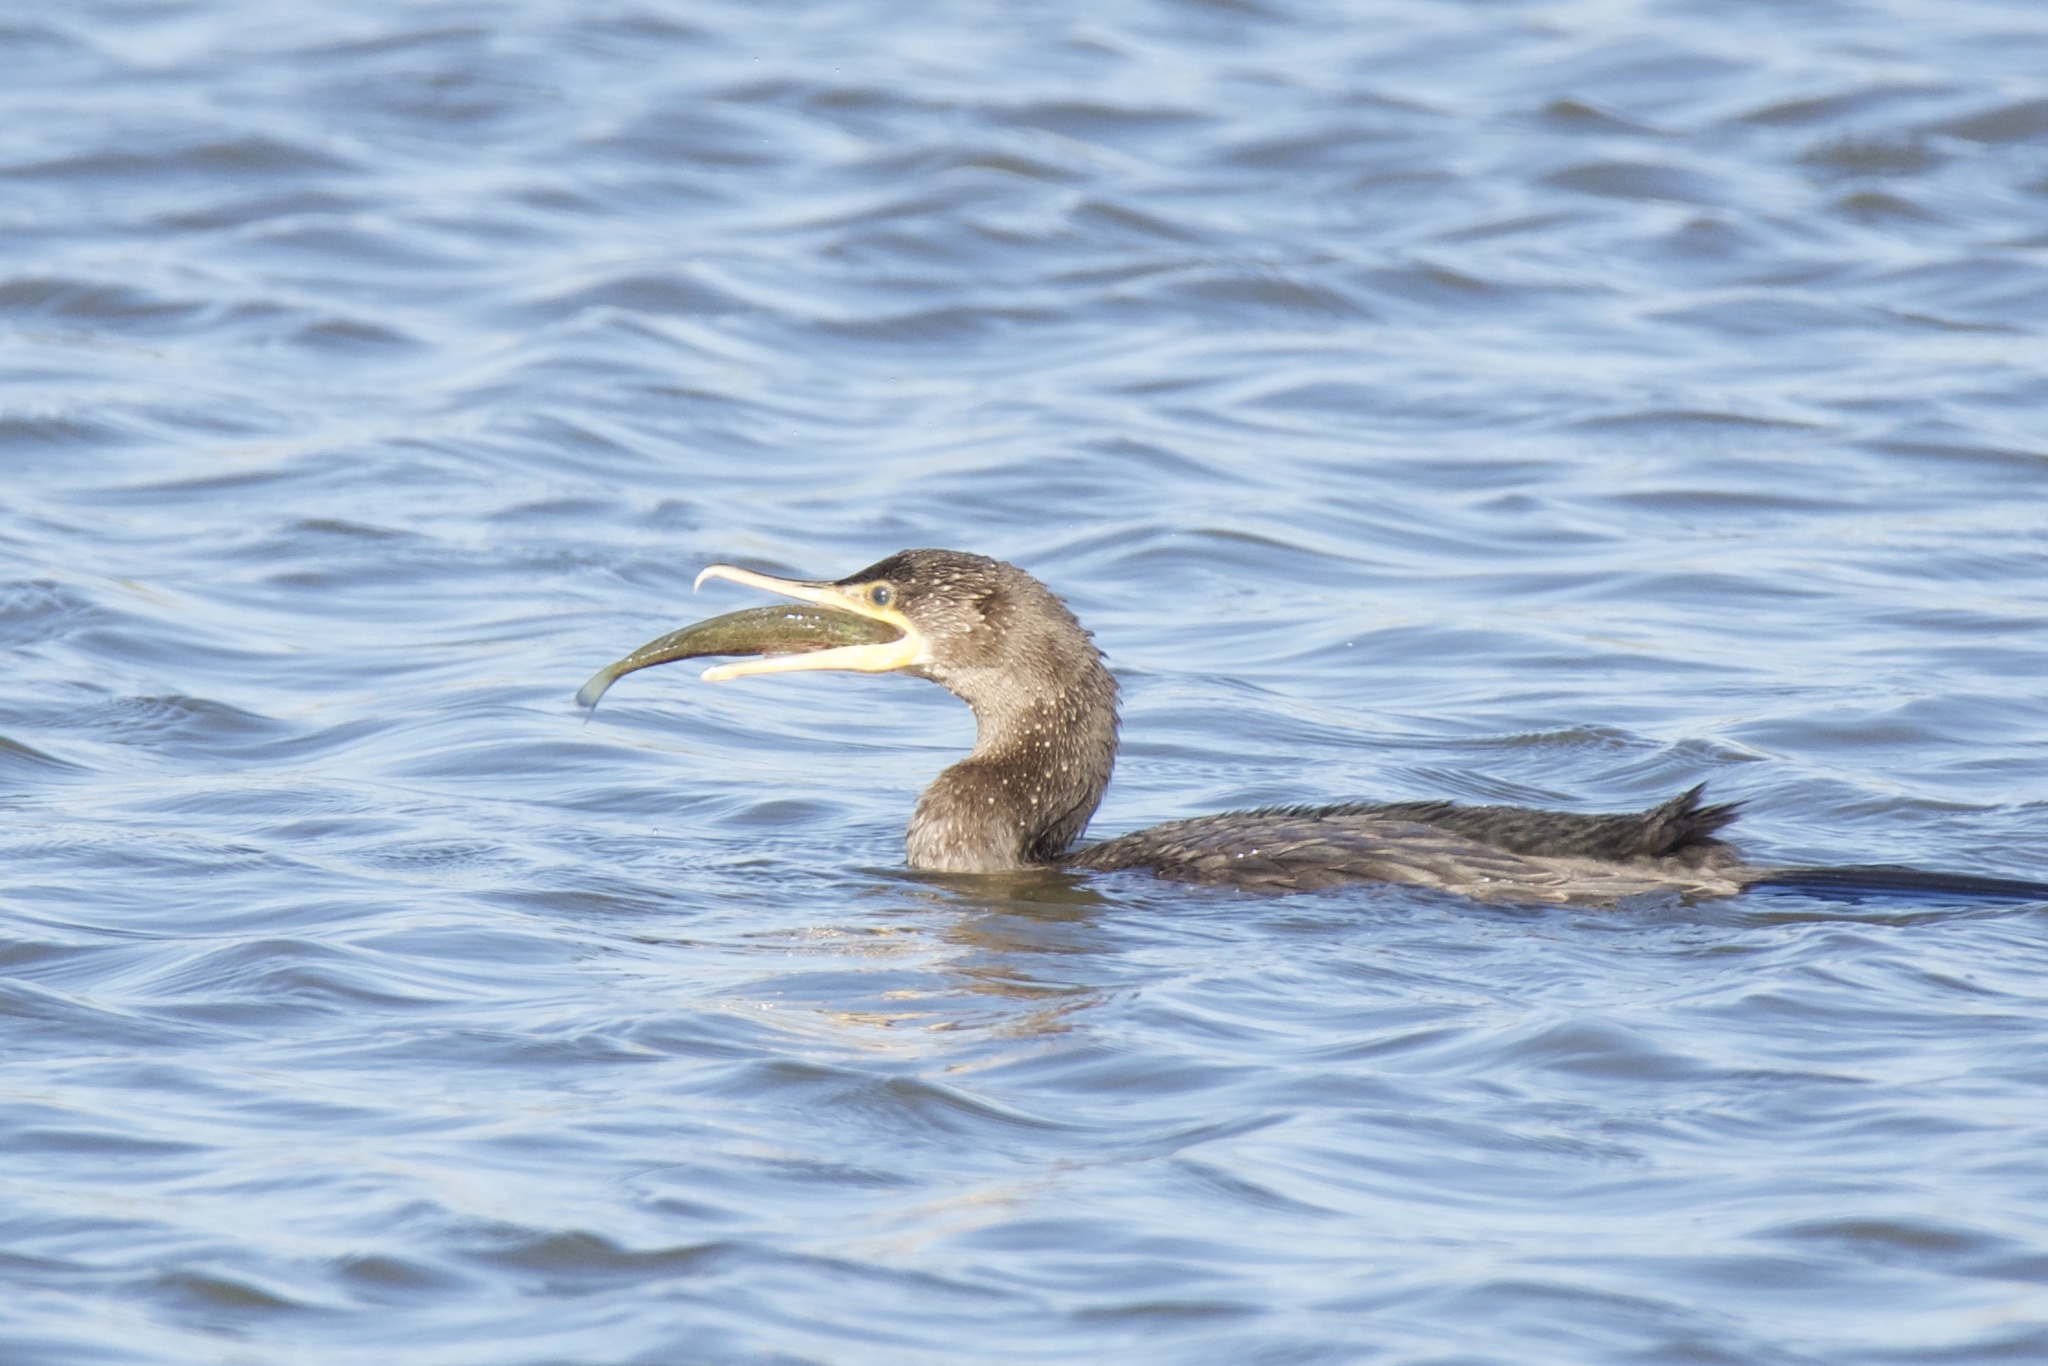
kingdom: Animalia
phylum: Chordata
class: Aves
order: Suliformes
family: Phalacrocoracidae
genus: Phalacrocorax
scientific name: Phalacrocorax brasilianus
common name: Neotropic cormorant
